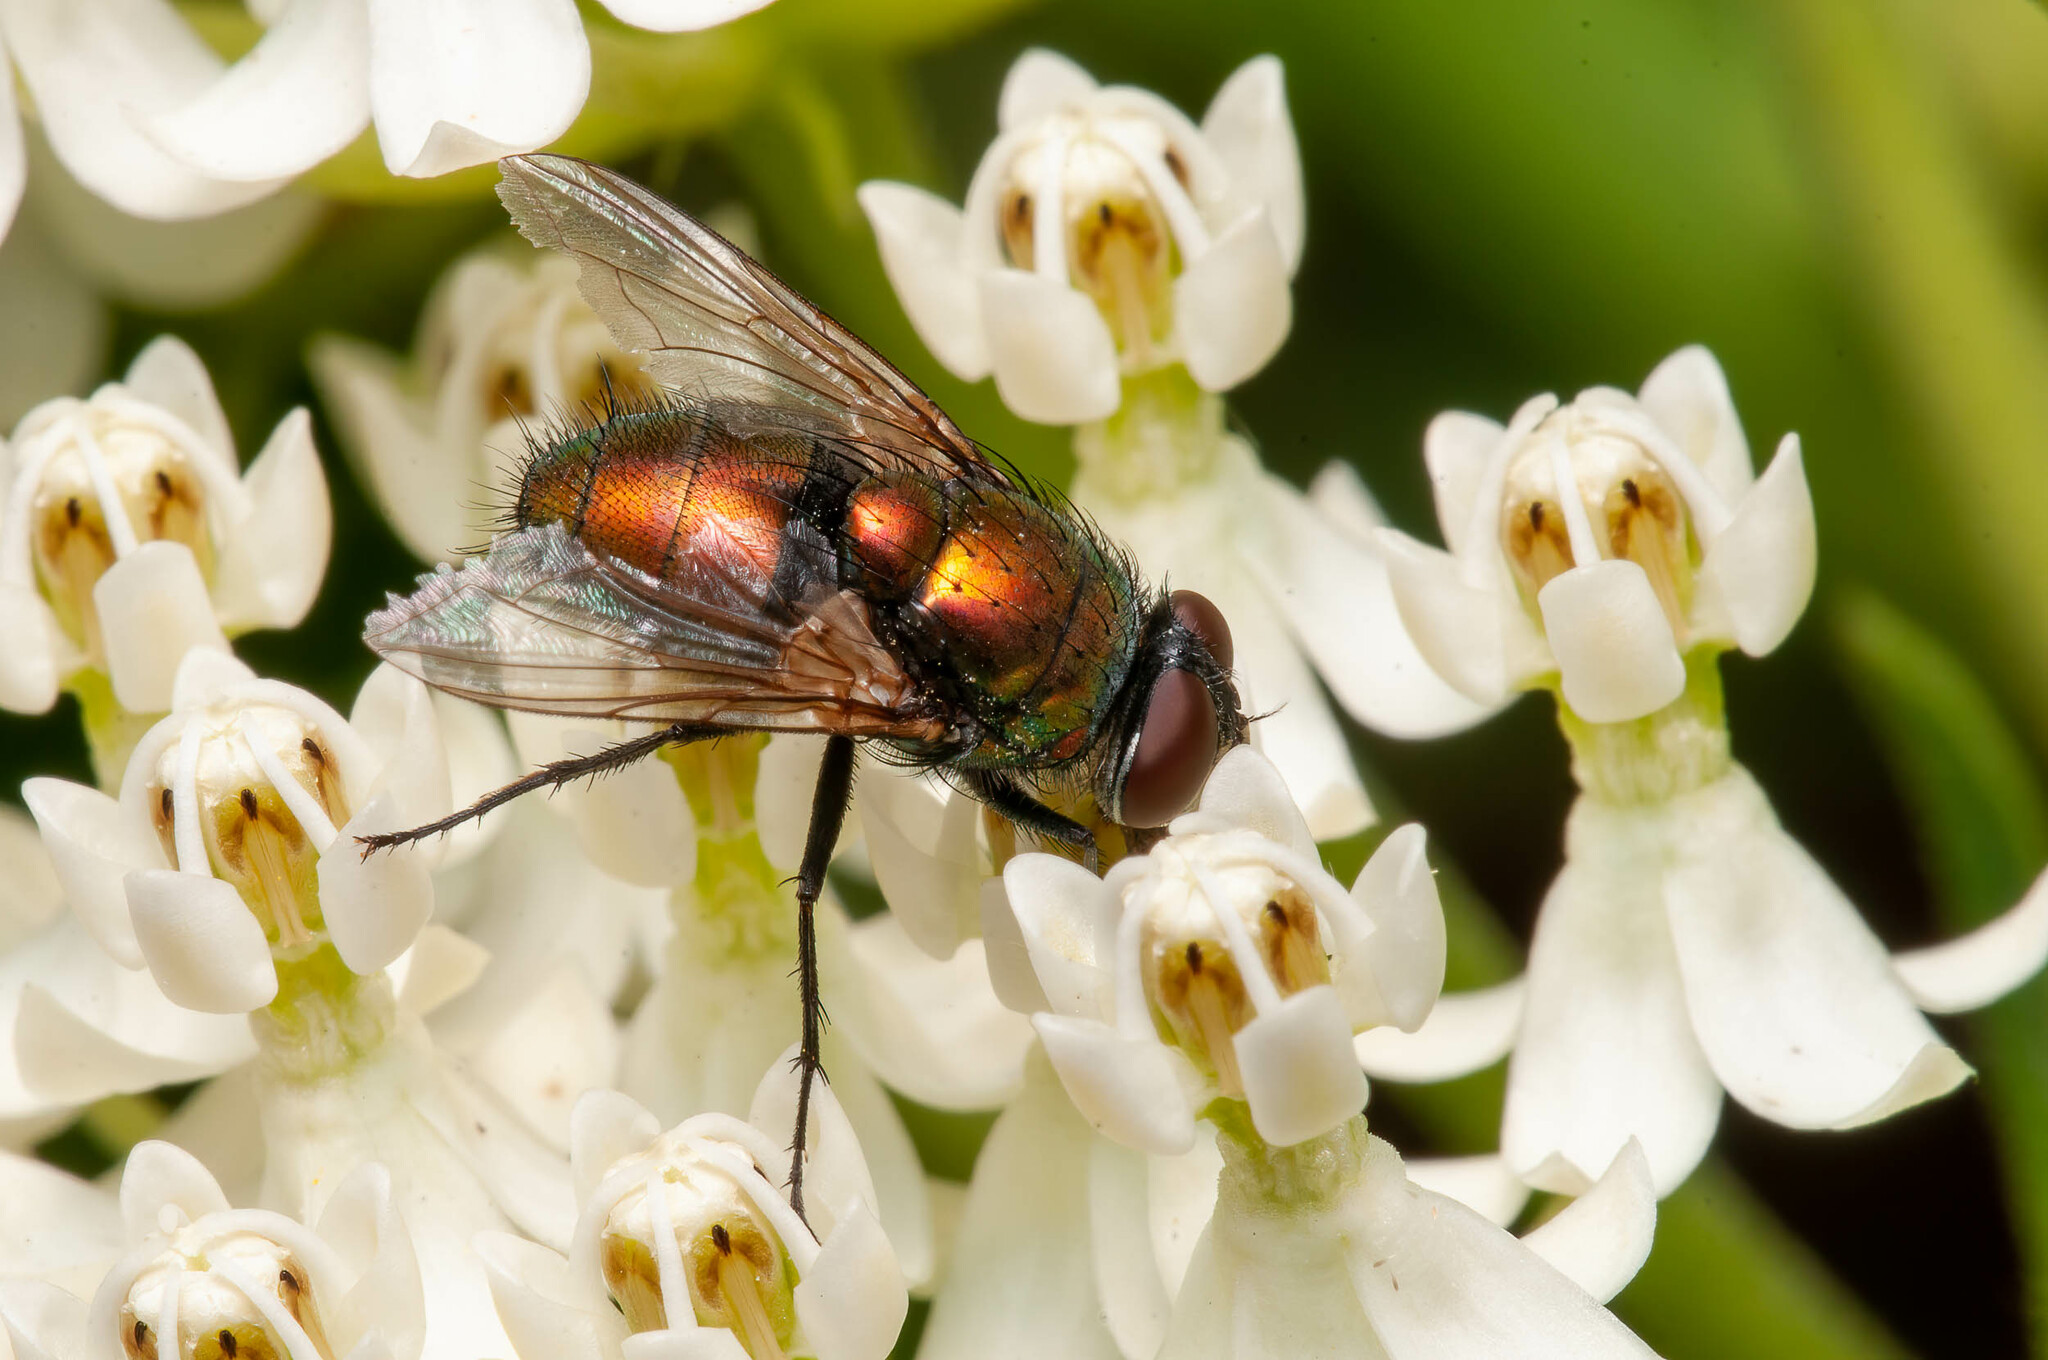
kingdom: Animalia
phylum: Arthropoda
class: Insecta
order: Diptera
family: Calliphoridae
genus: Lucilia
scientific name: Lucilia sericata
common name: Blow fly
